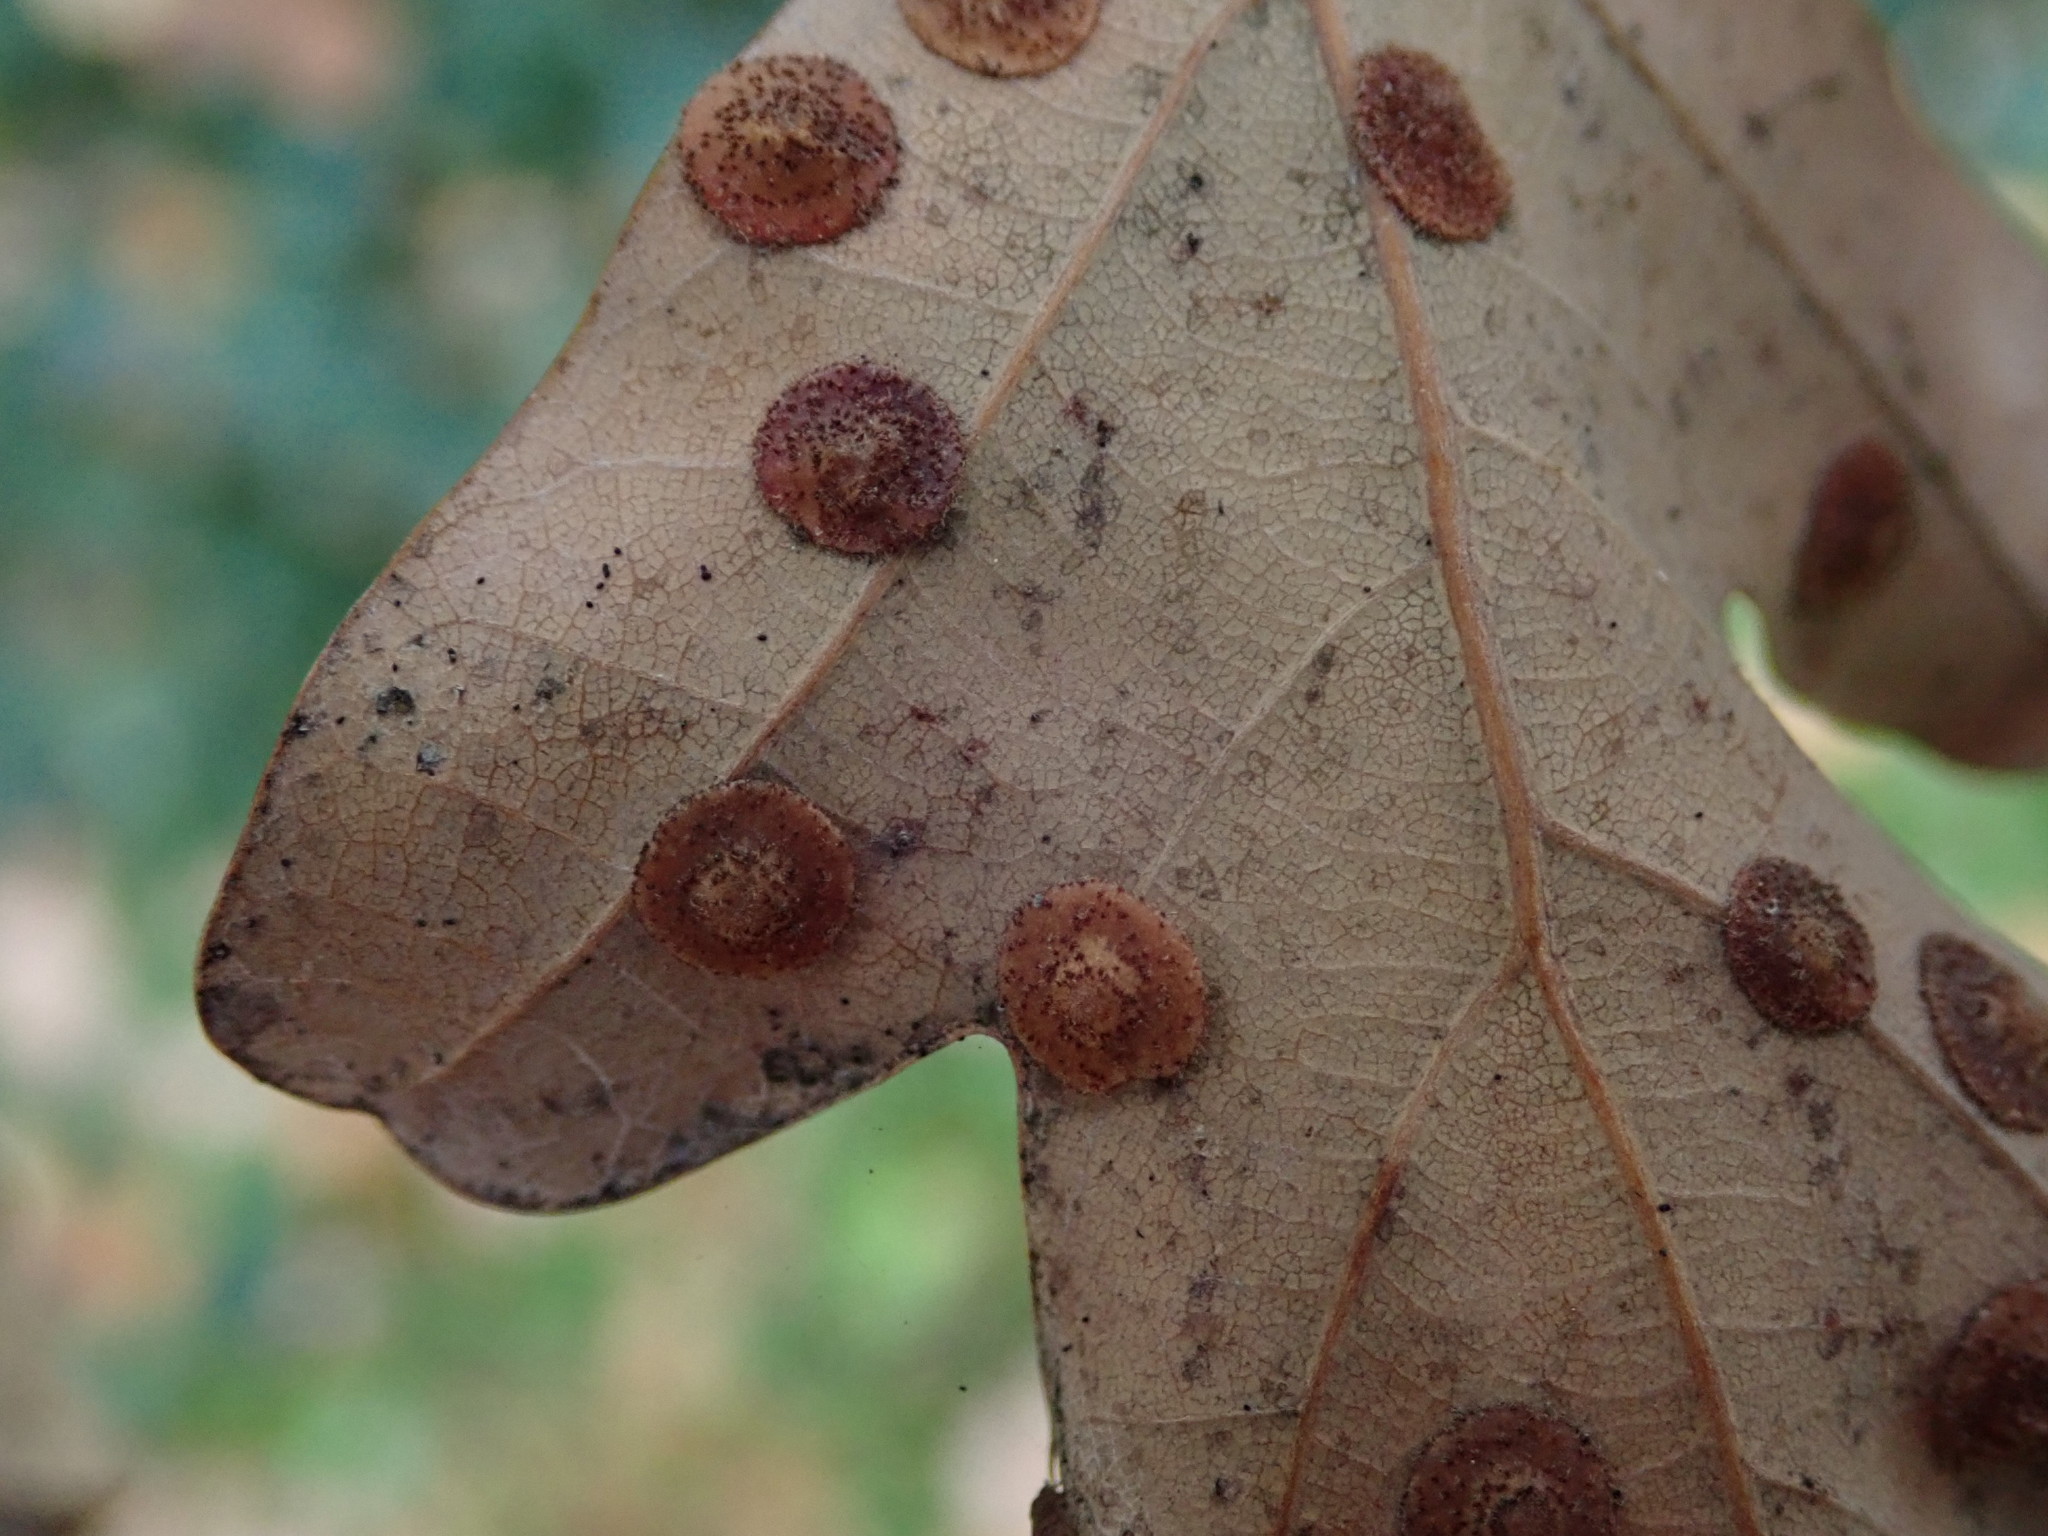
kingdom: Animalia
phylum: Arthropoda
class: Insecta
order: Hymenoptera
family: Cynipidae
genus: Neuroterus
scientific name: Neuroterus quercusbaccarum
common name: Common spangle gall
